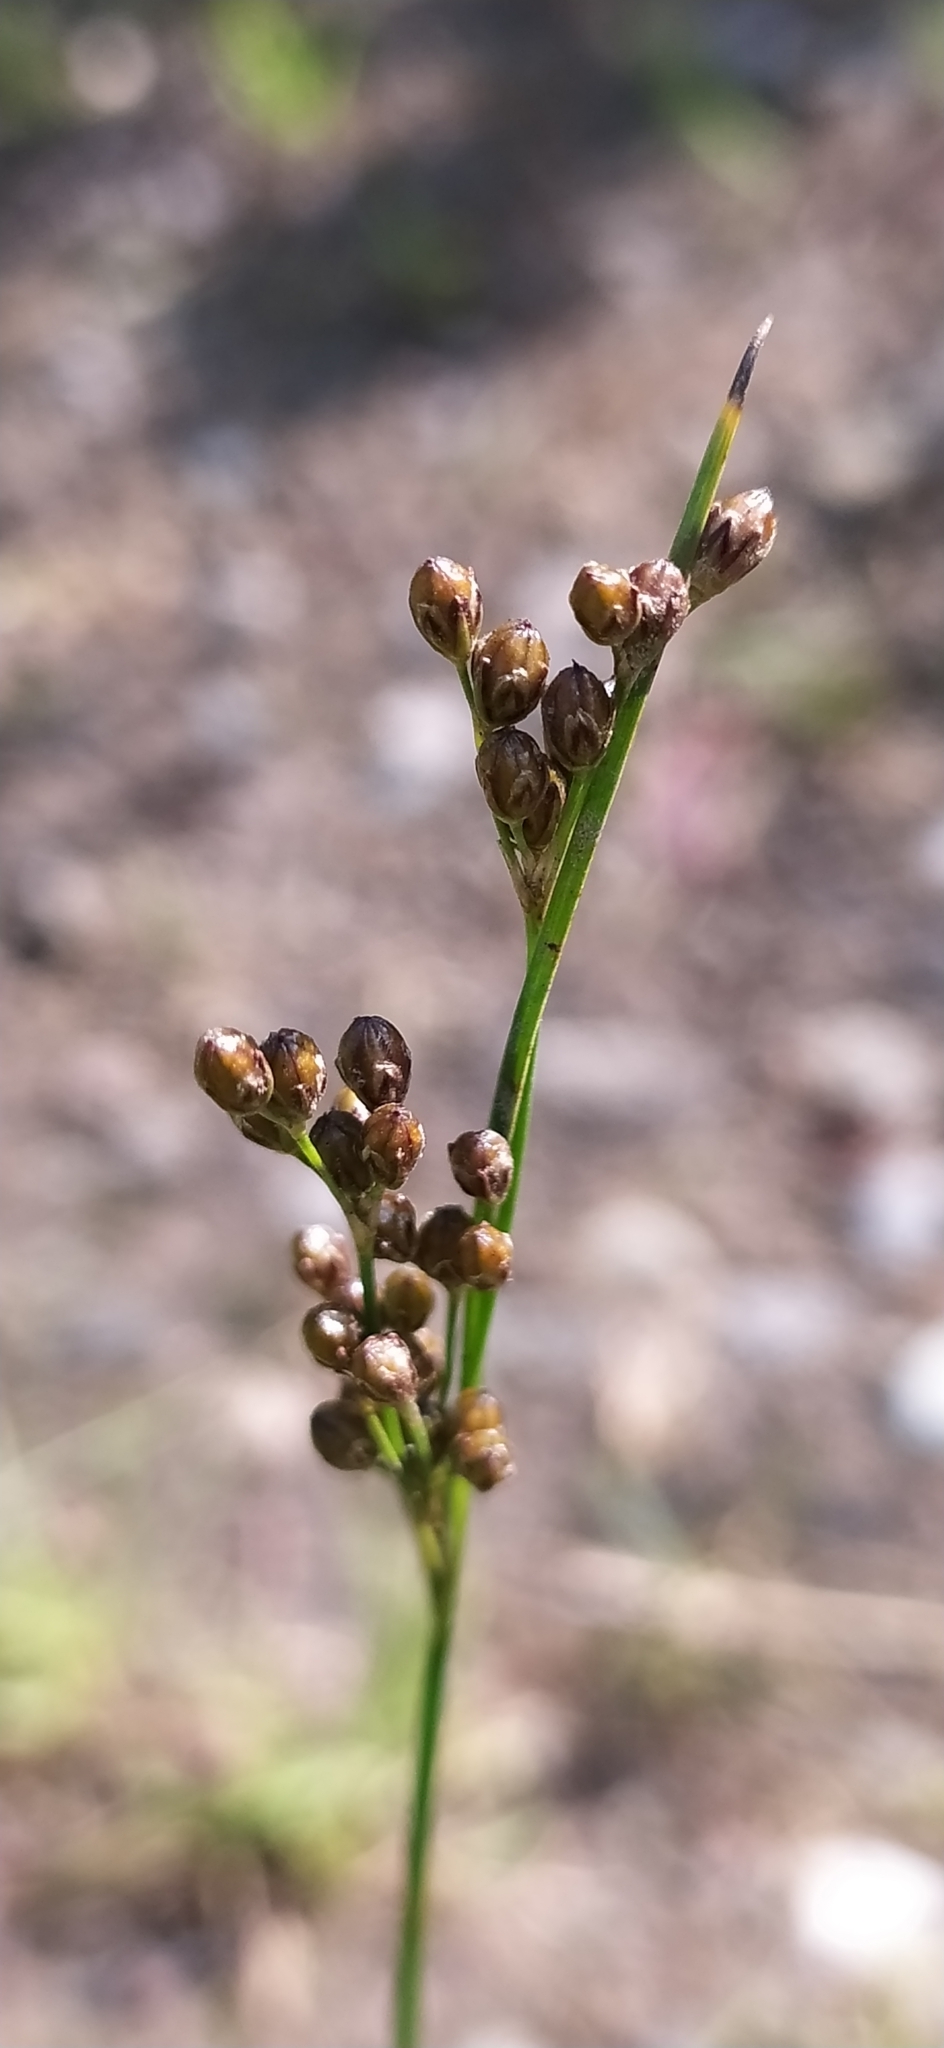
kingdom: Plantae
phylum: Tracheophyta
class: Liliopsida
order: Poales
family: Juncaceae
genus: Juncus
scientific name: Juncus compressus
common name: Round-fruited rush
